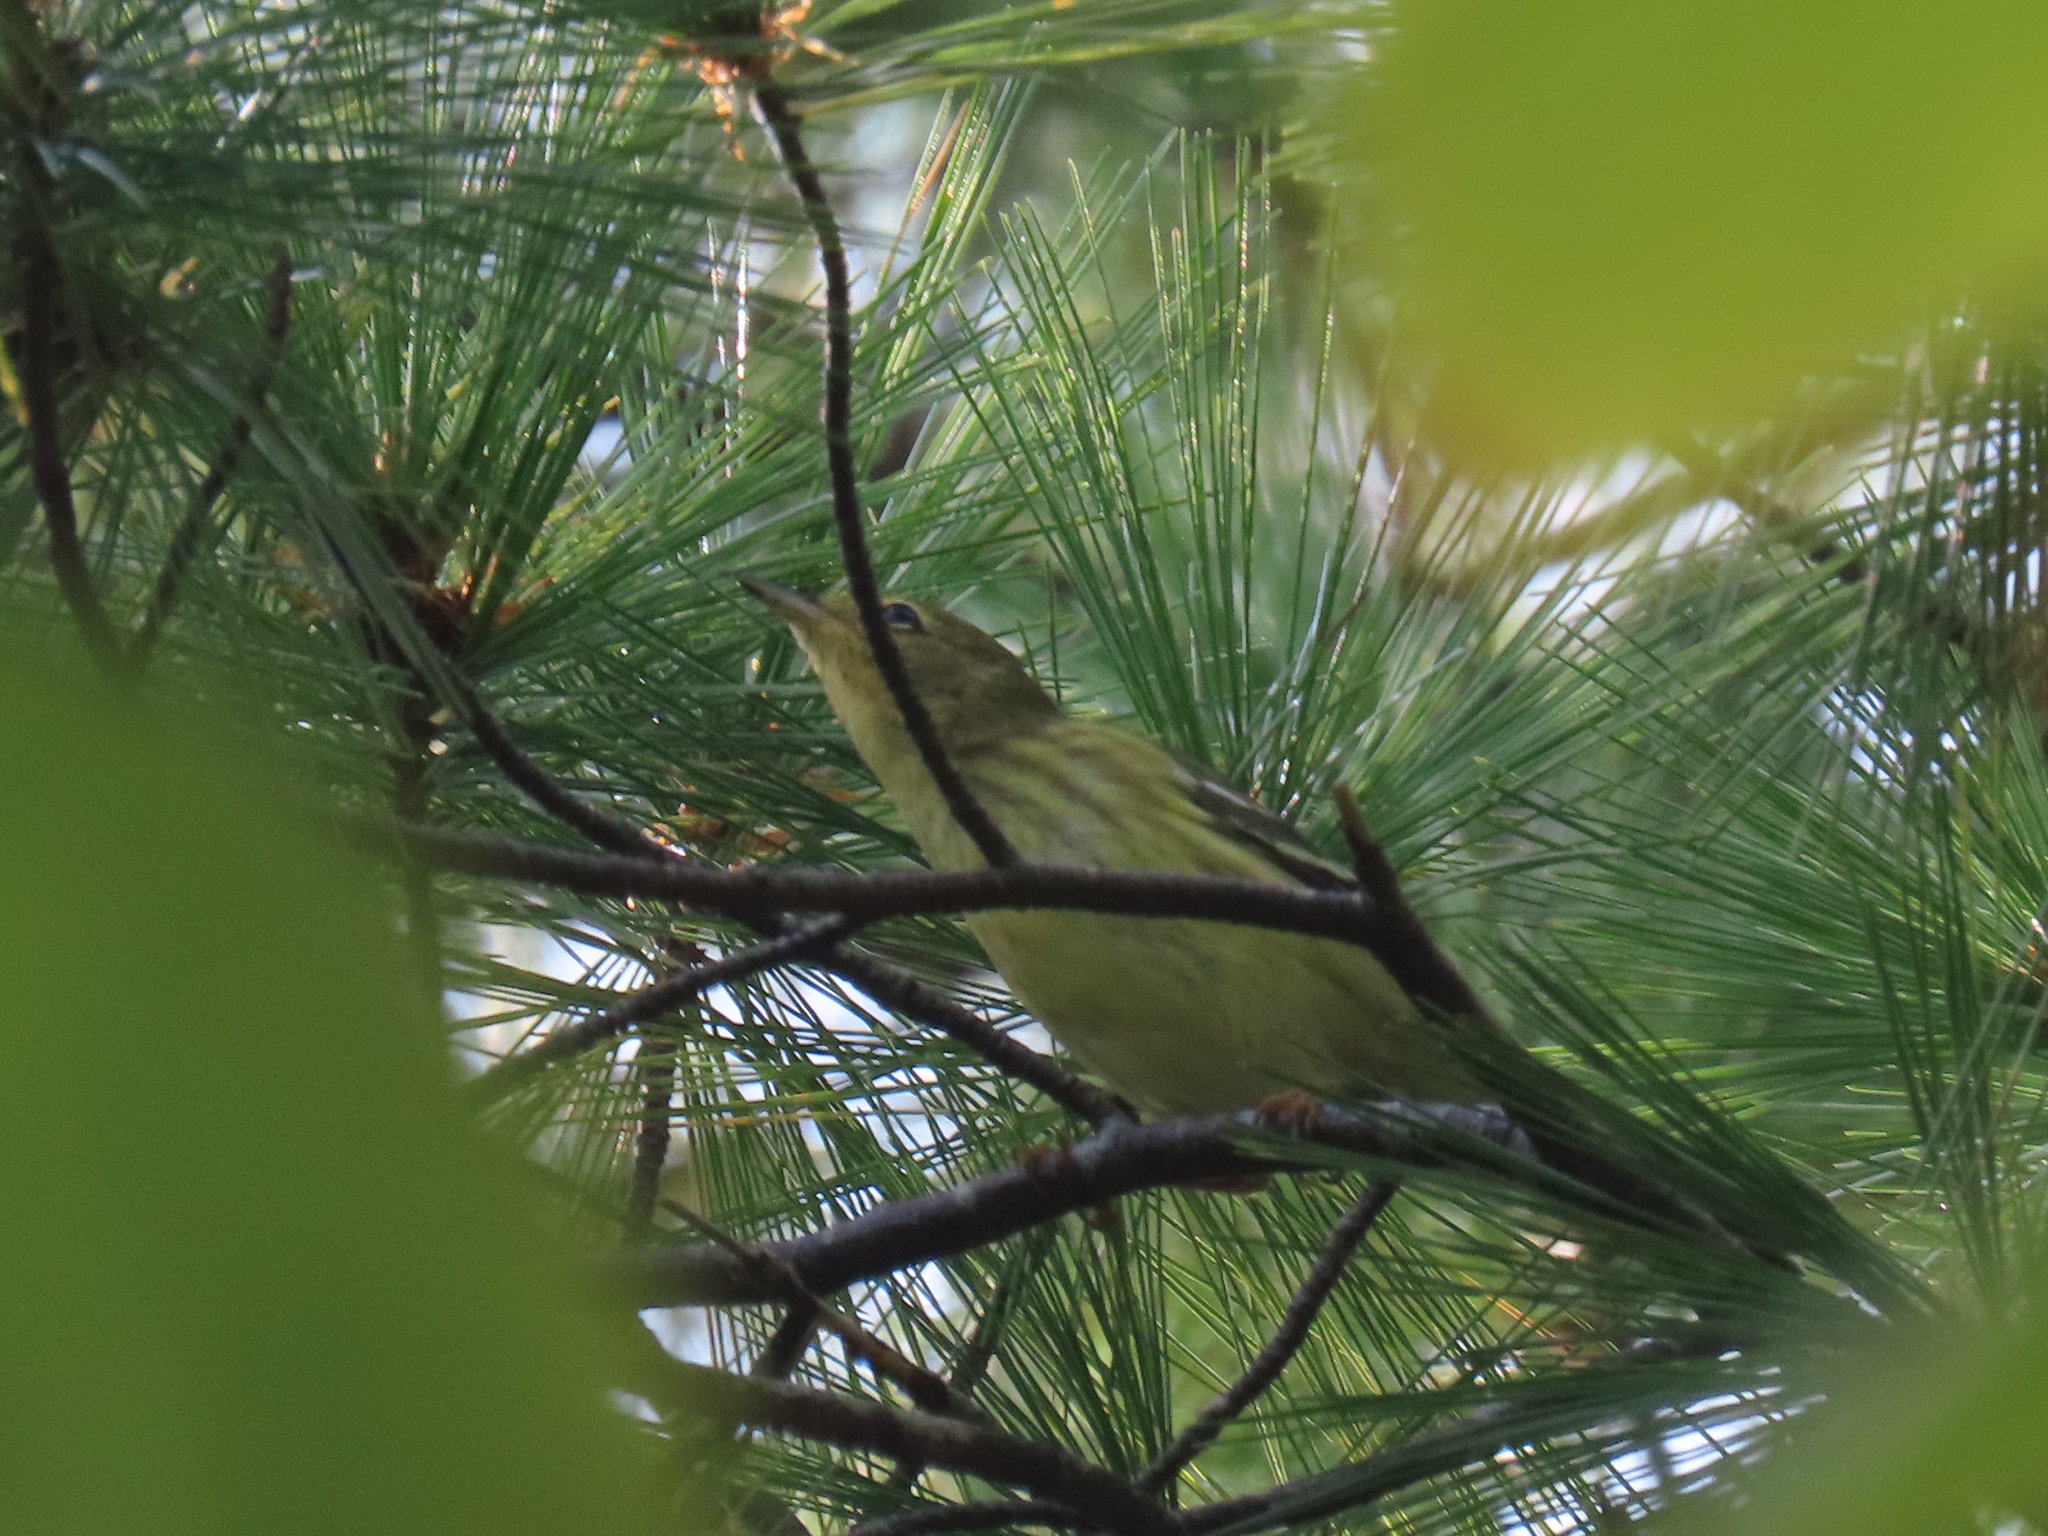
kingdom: Animalia
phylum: Chordata
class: Aves
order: Passeriformes
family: Parulidae
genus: Setophaga
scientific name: Setophaga striata
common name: Blackpoll warbler
